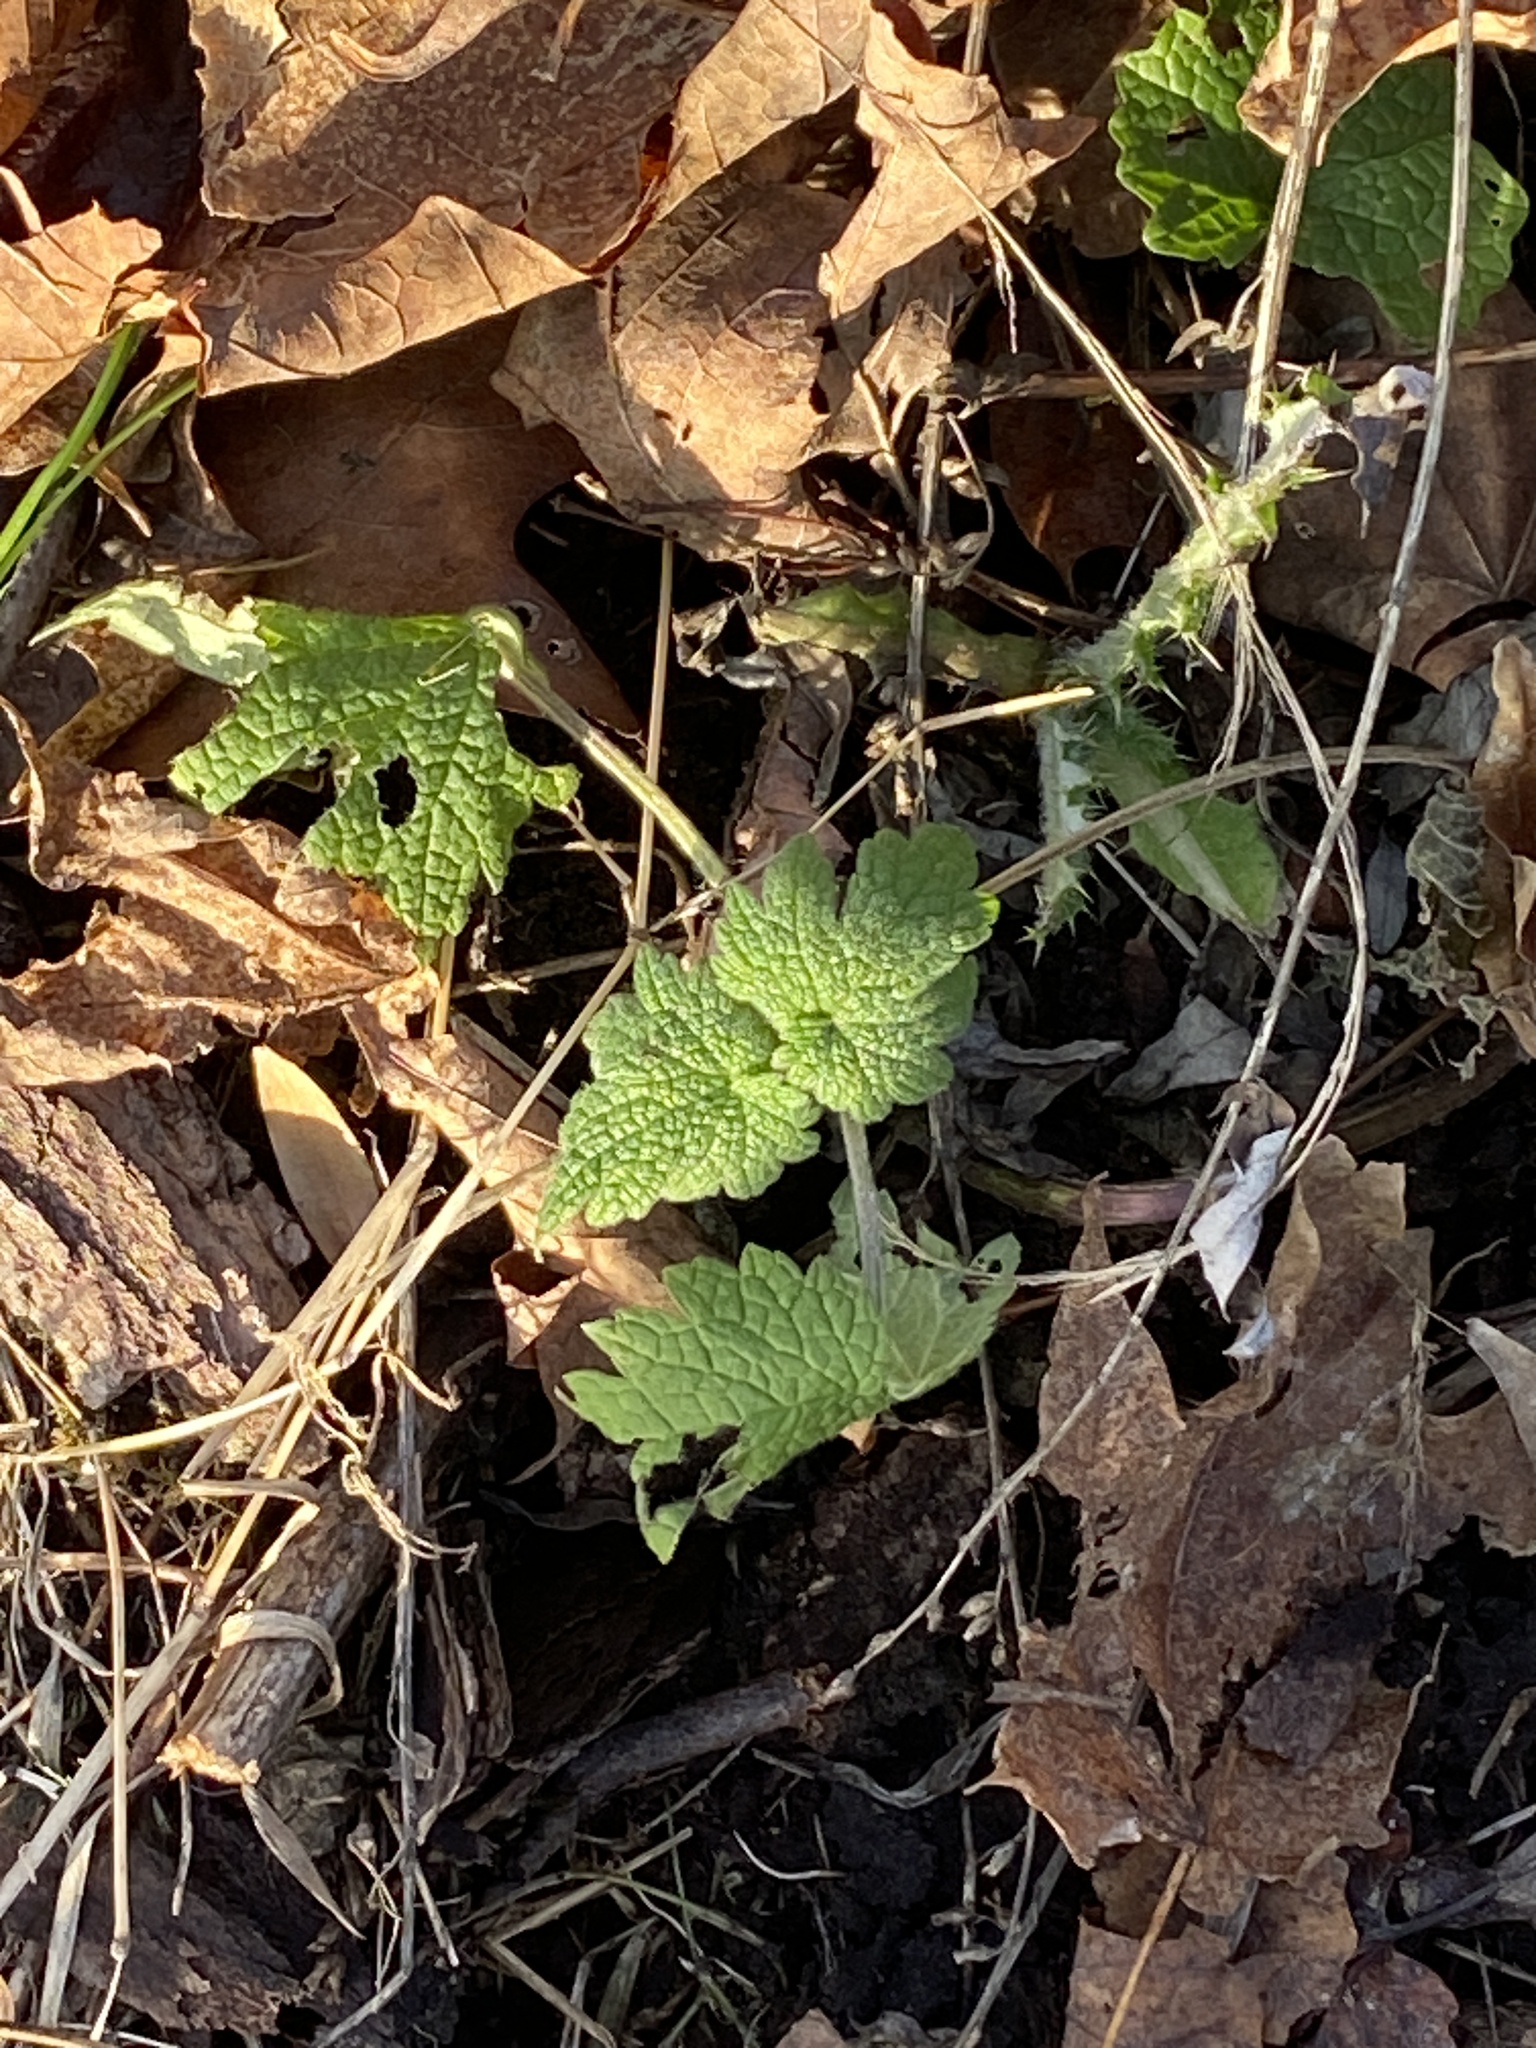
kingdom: Plantae
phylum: Tracheophyta
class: Magnoliopsida
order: Lamiales
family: Lamiaceae
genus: Leonurus
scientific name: Leonurus cardiaca
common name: Motherwort
